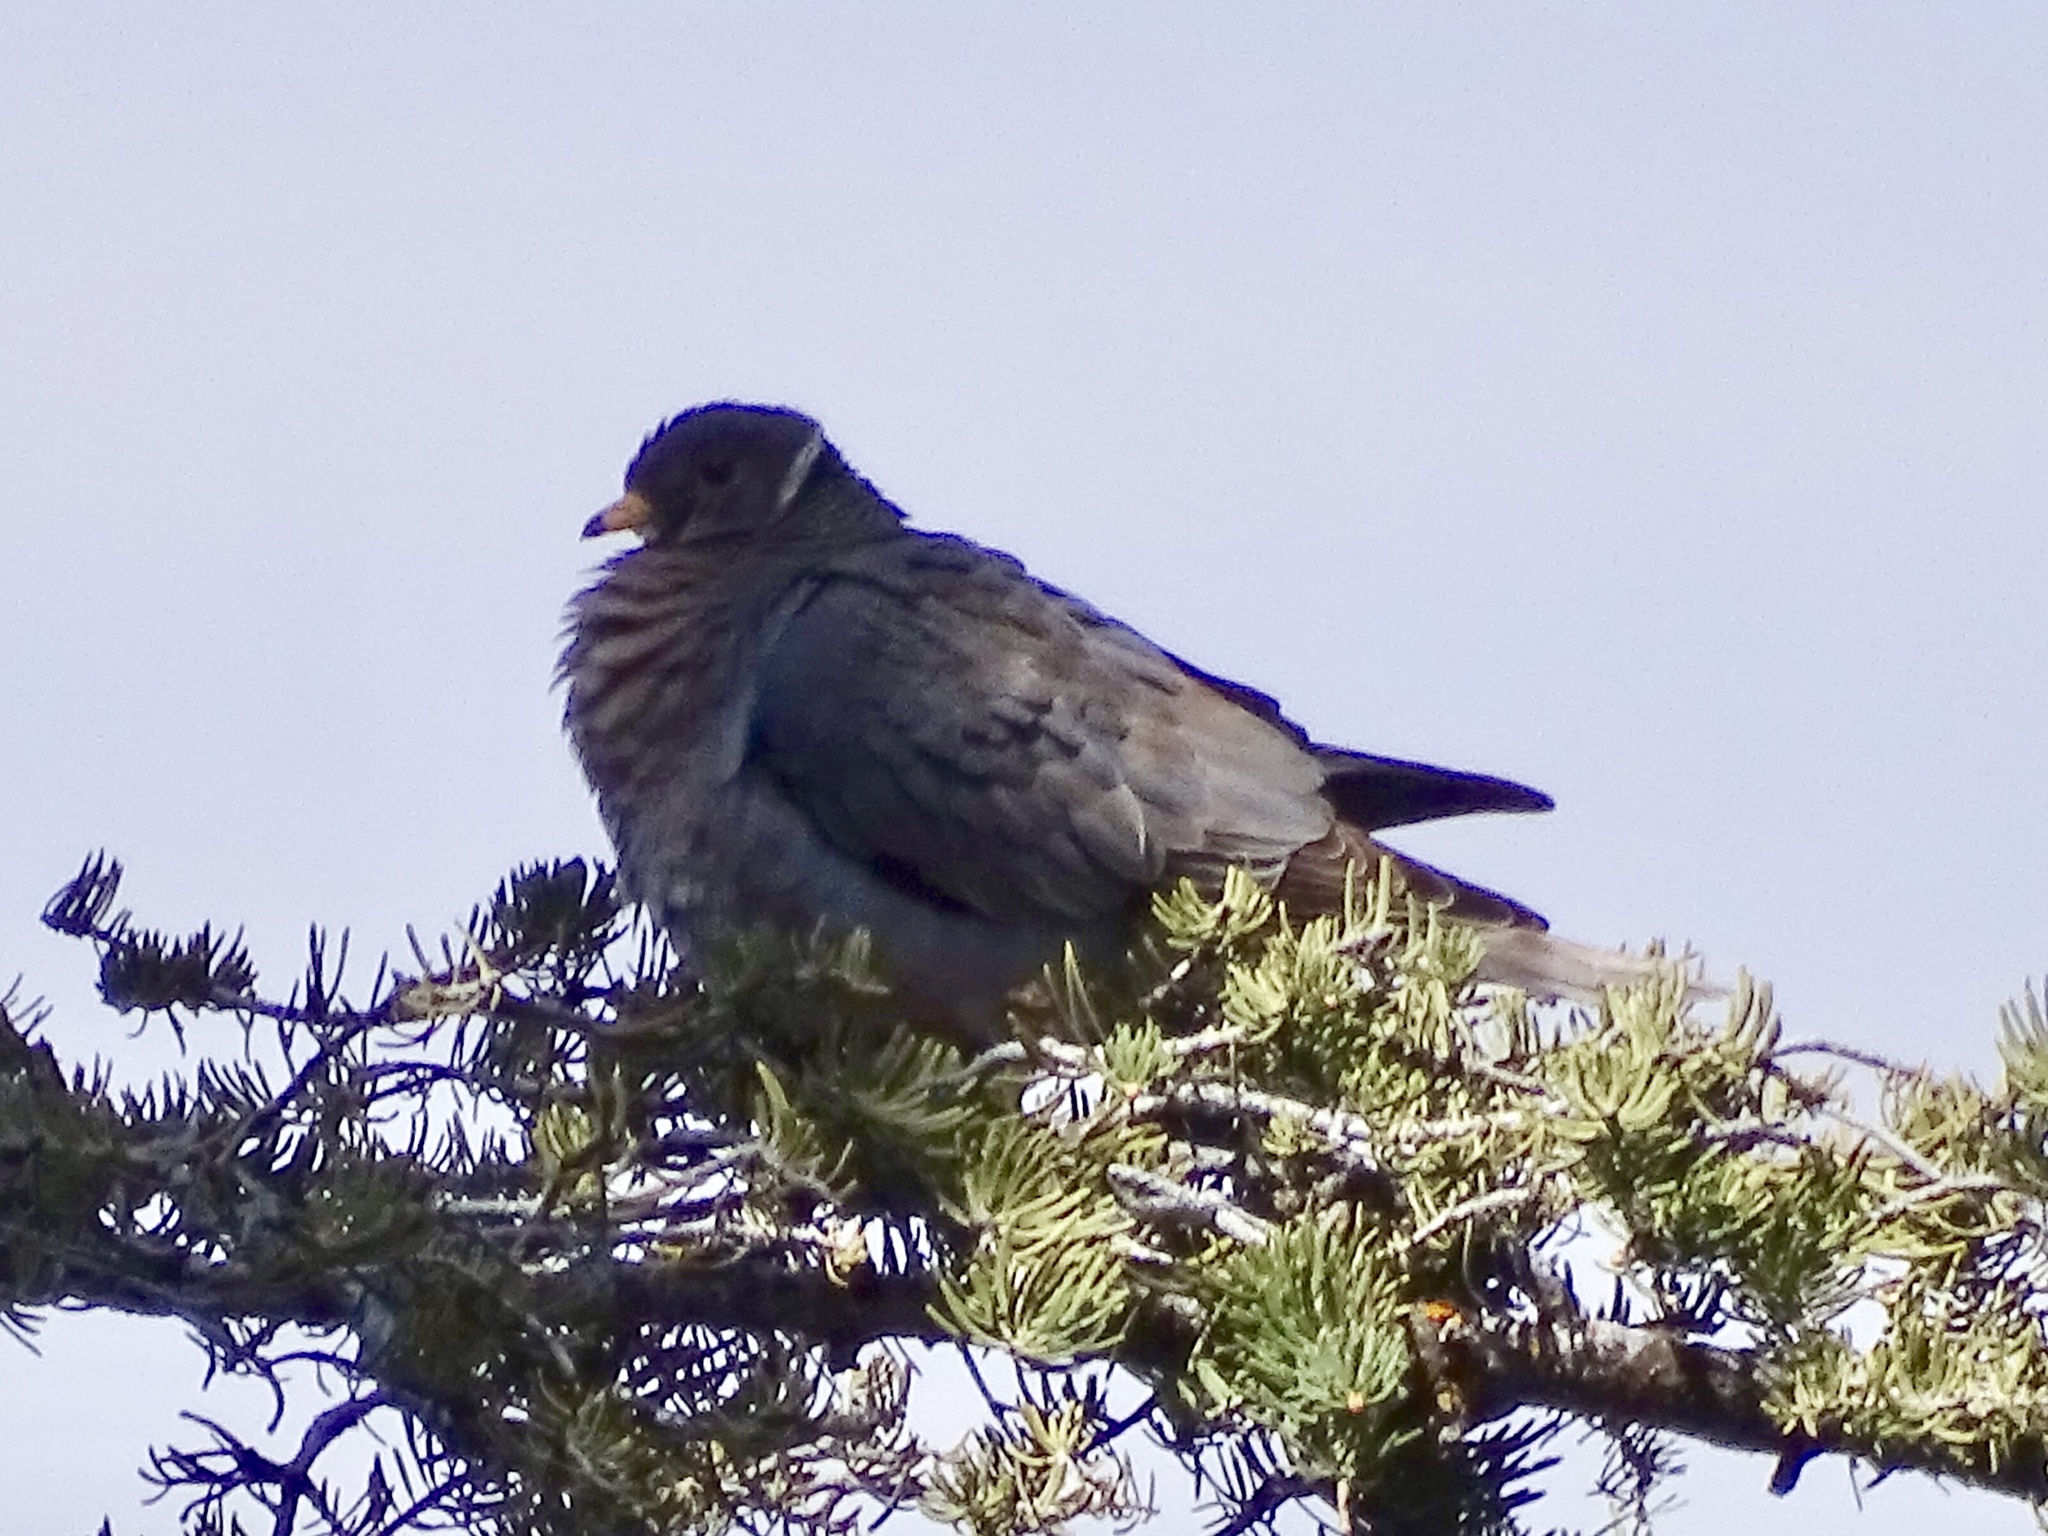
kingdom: Animalia
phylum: Chordata
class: Aves
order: Columbiformes
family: Columbidae
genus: Patagioenas
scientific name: Patagioenas fasciata
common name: Band-tailed pigeon
